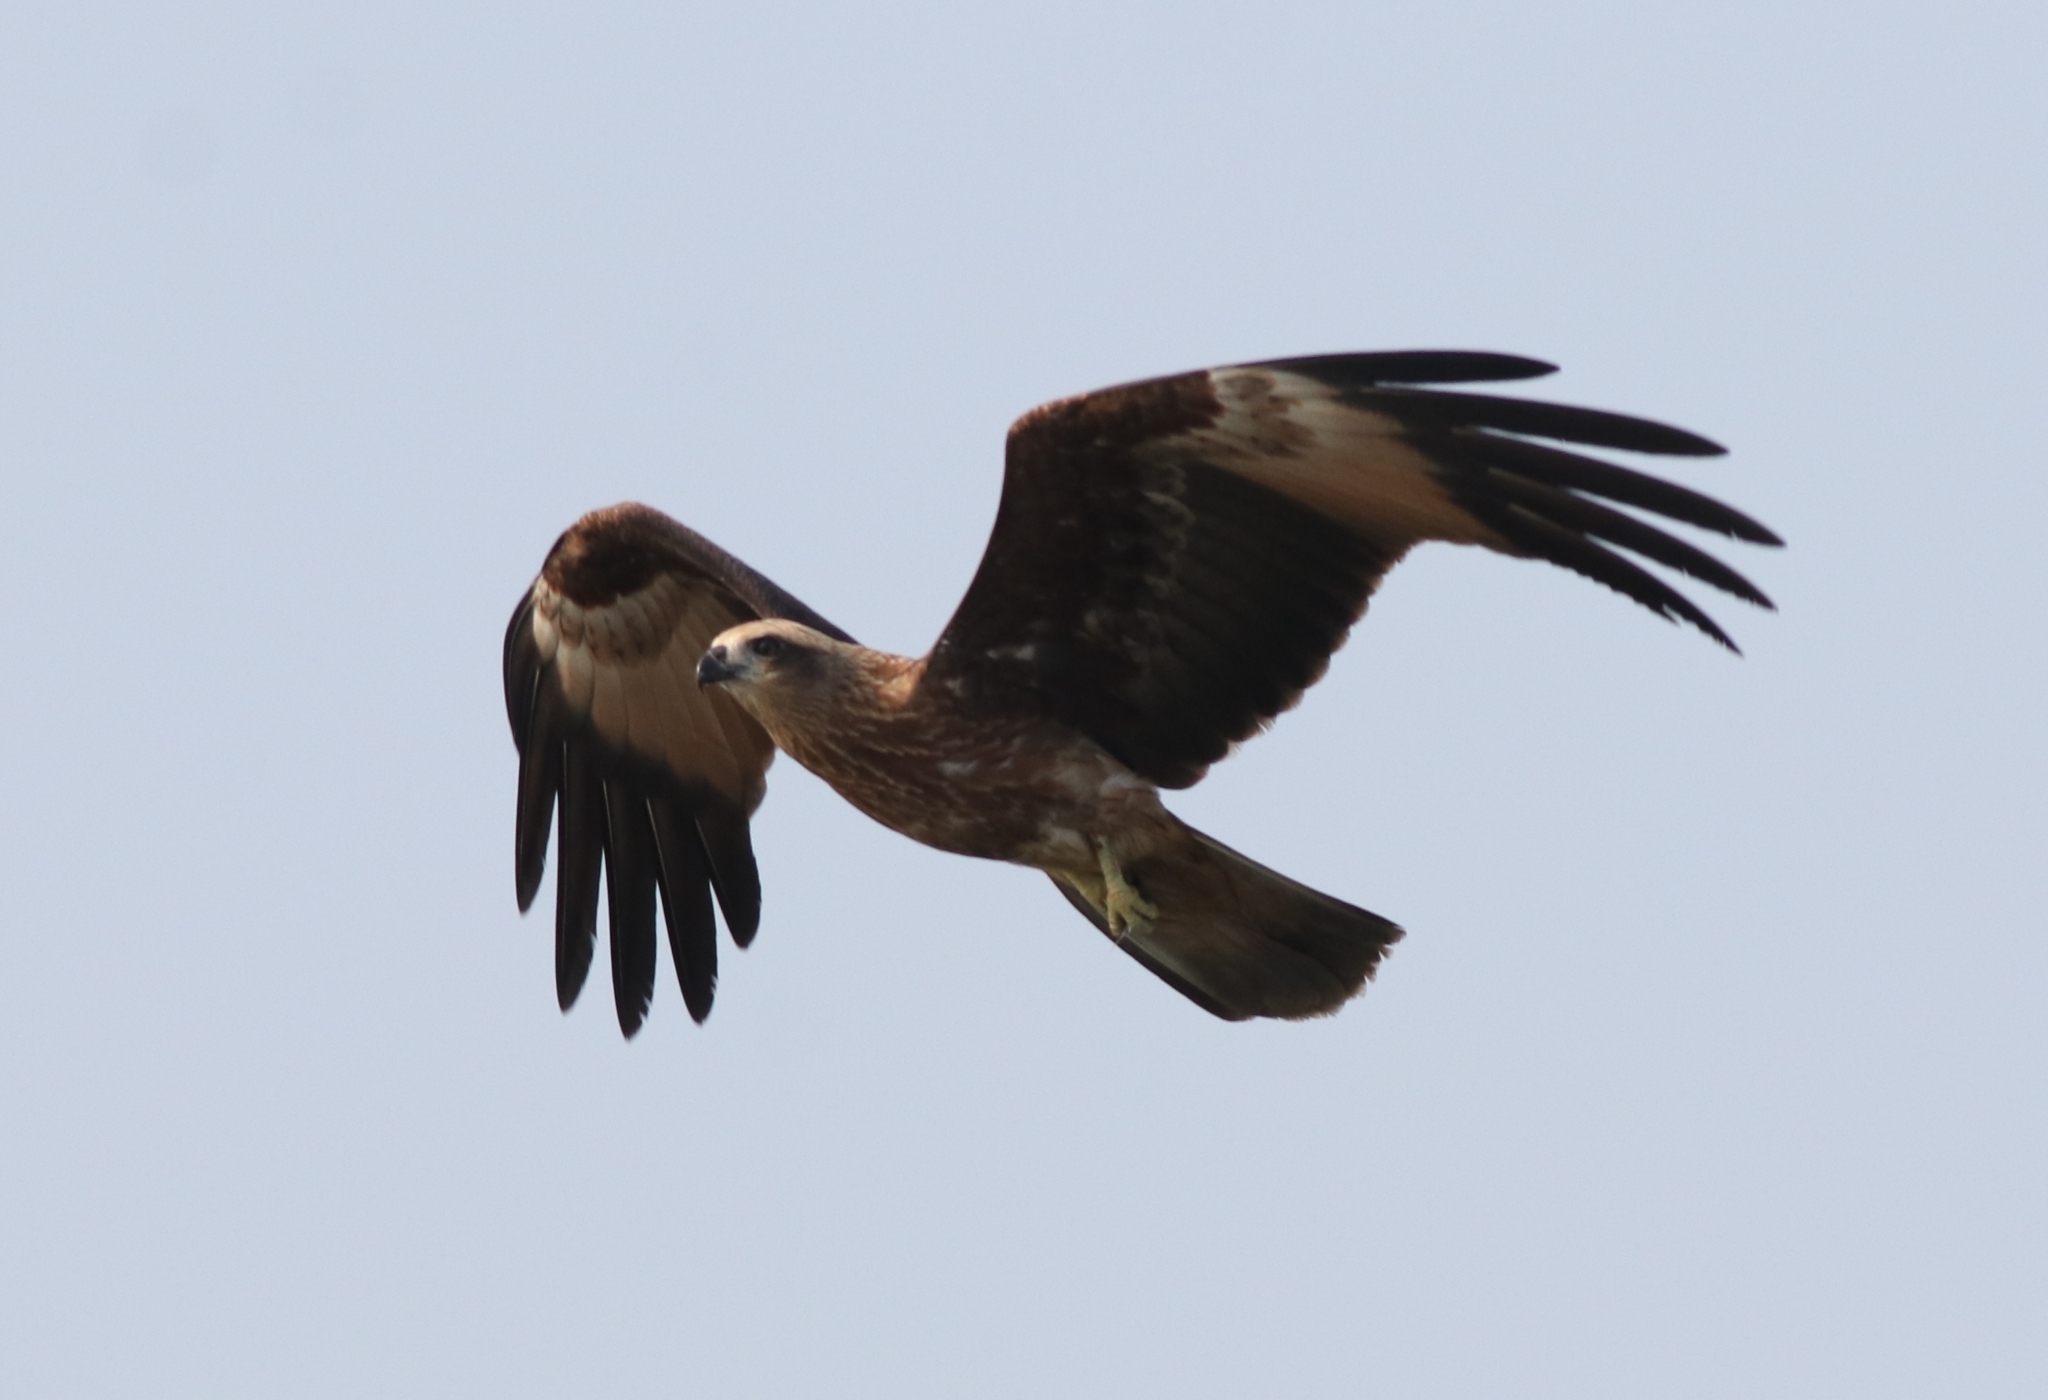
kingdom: Animalia
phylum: Chordata
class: Aves
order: Accipitriformes
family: Accipitridae
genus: Haliastur
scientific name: Haliastur indus
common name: Brahminy kite
